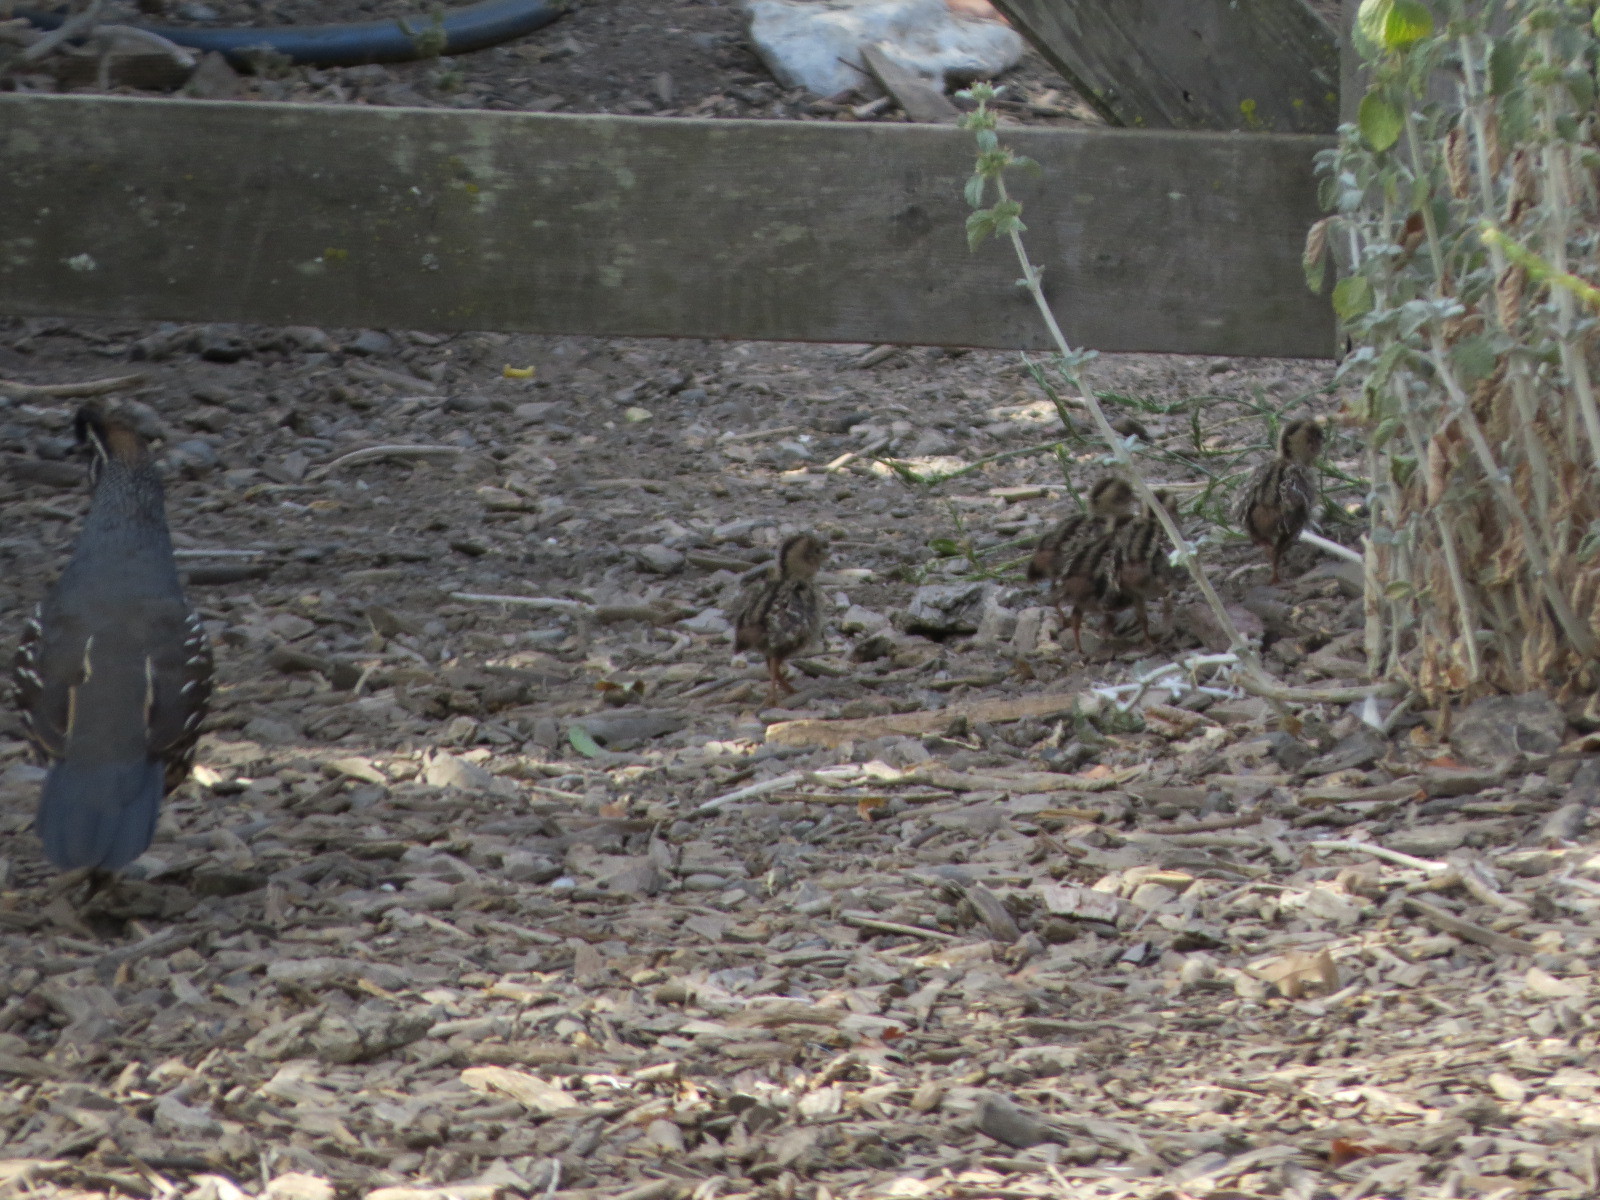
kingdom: Animalia
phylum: Chordata
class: Aves
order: Galliformes
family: Odontophoridae
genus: Callipepla
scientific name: Callipepla californica
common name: California quail
